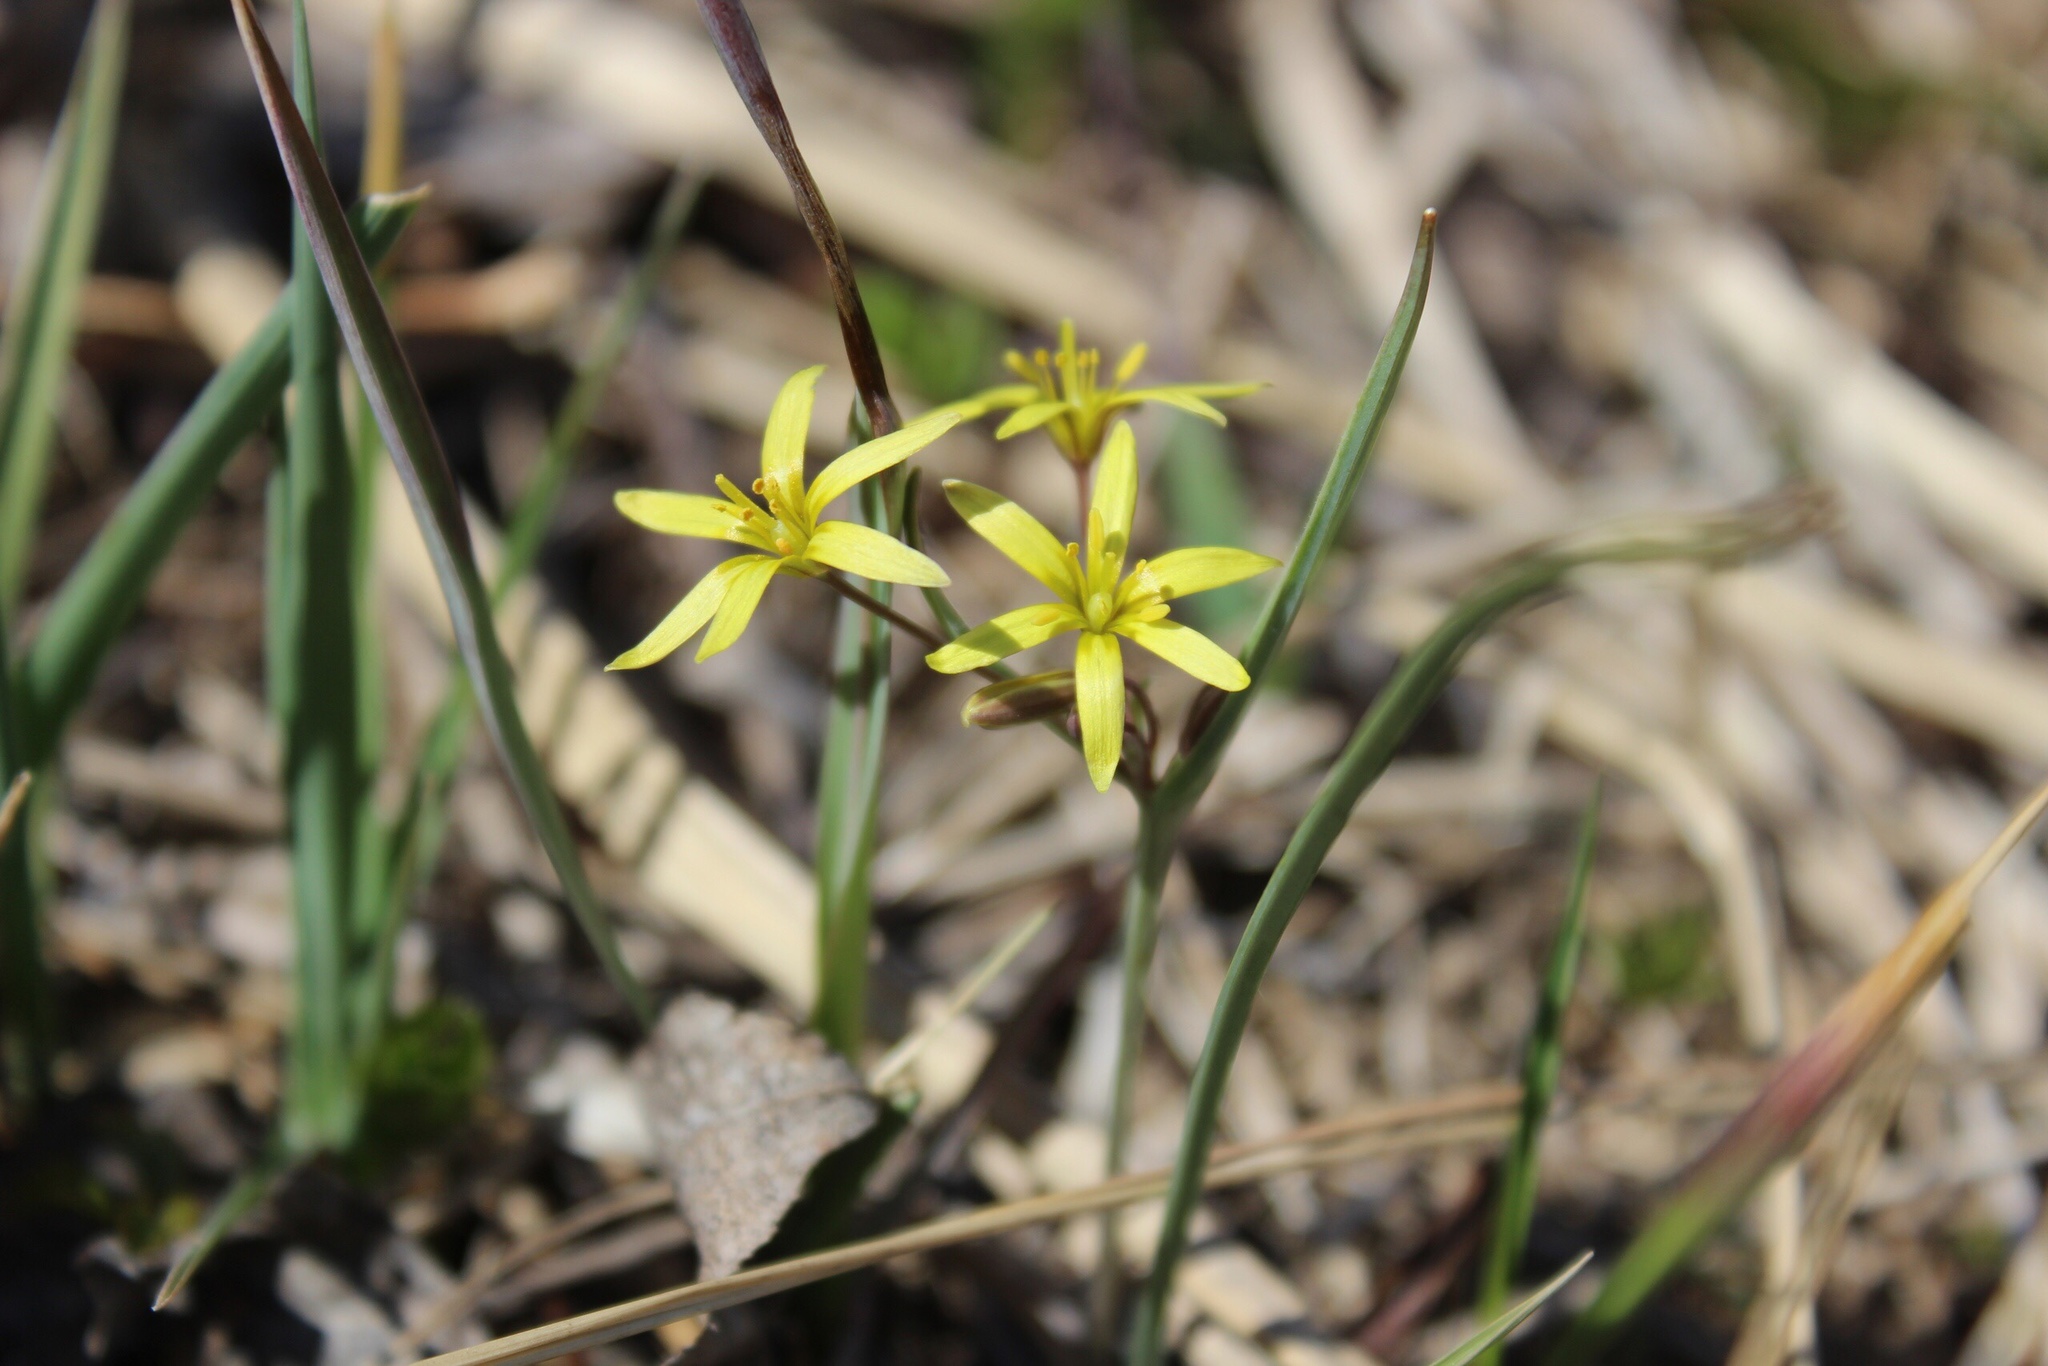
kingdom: Plantae
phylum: Tracheophyta
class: Liliopsida
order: Liliales
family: Liliaceae
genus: Gagea
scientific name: Gagea fragifera
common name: Lily
